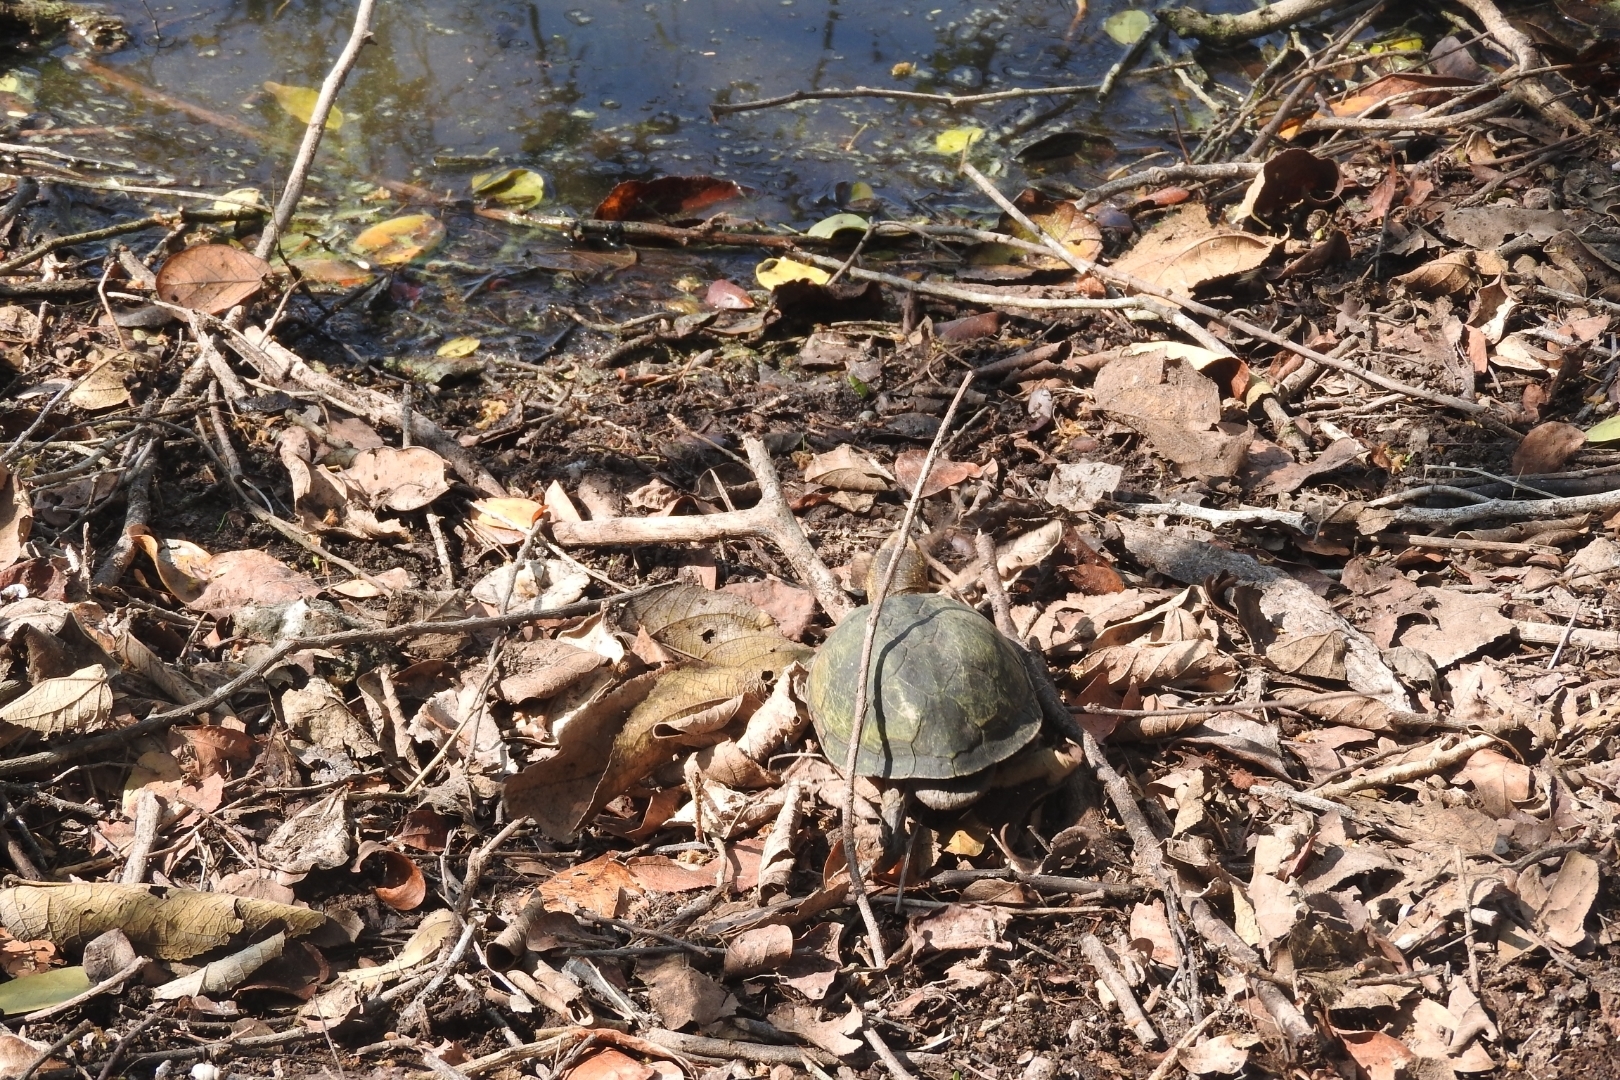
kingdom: Animalia
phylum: Chordata
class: Testudines
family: Kinosternidae
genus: Kinosternon
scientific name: Kinosternon scorpioides
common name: Scorpion mud turtle
